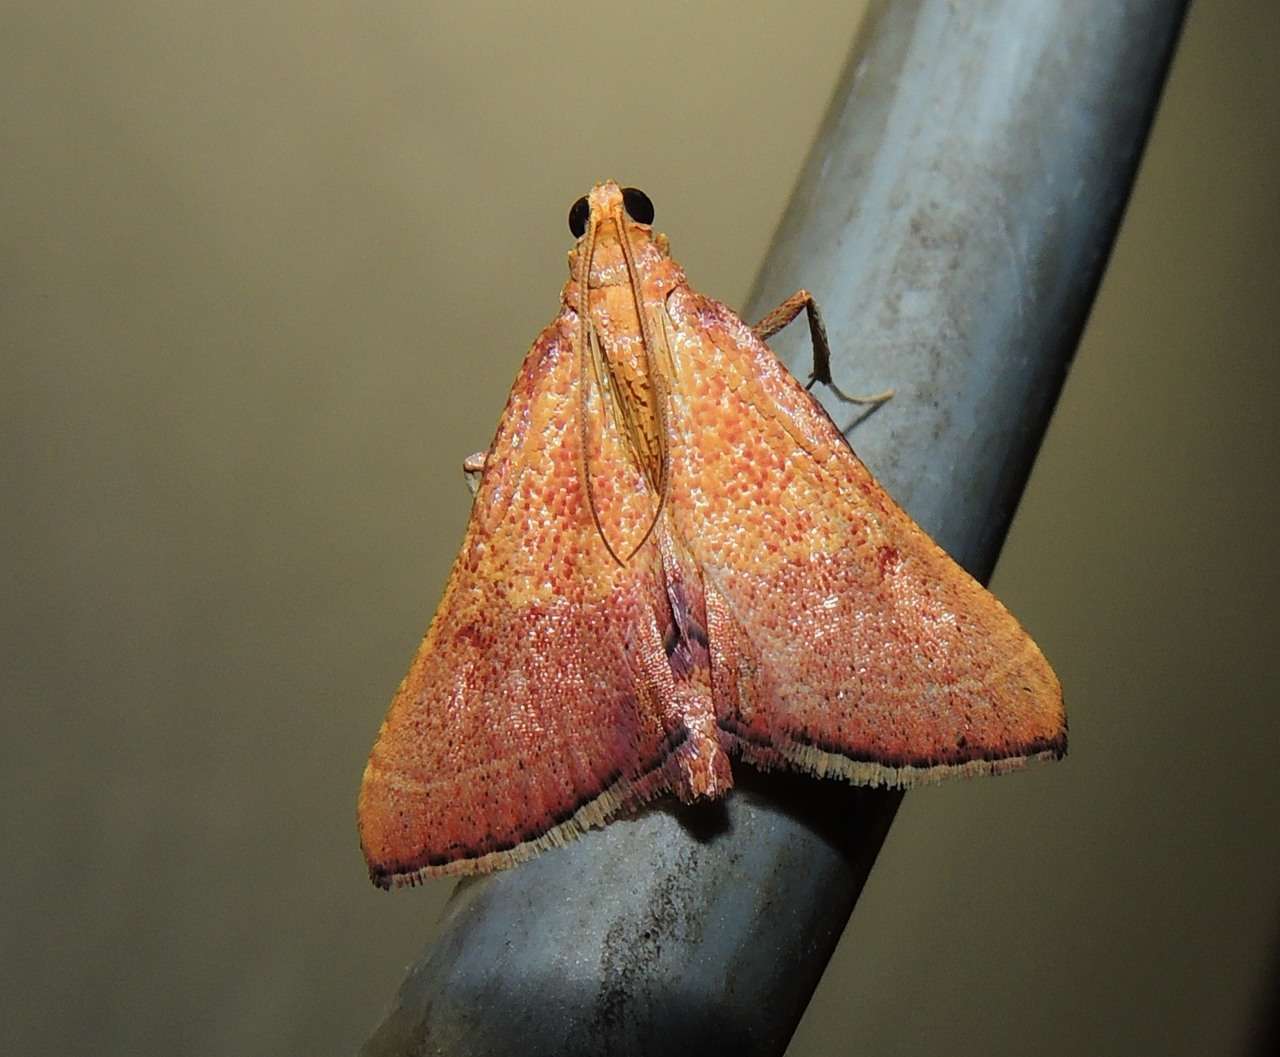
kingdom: Animalia
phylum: Arthropoda
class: Insecta
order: Lepidoptera
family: Pyralidae
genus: Endotricha
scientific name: Endotricha pyrosalis
